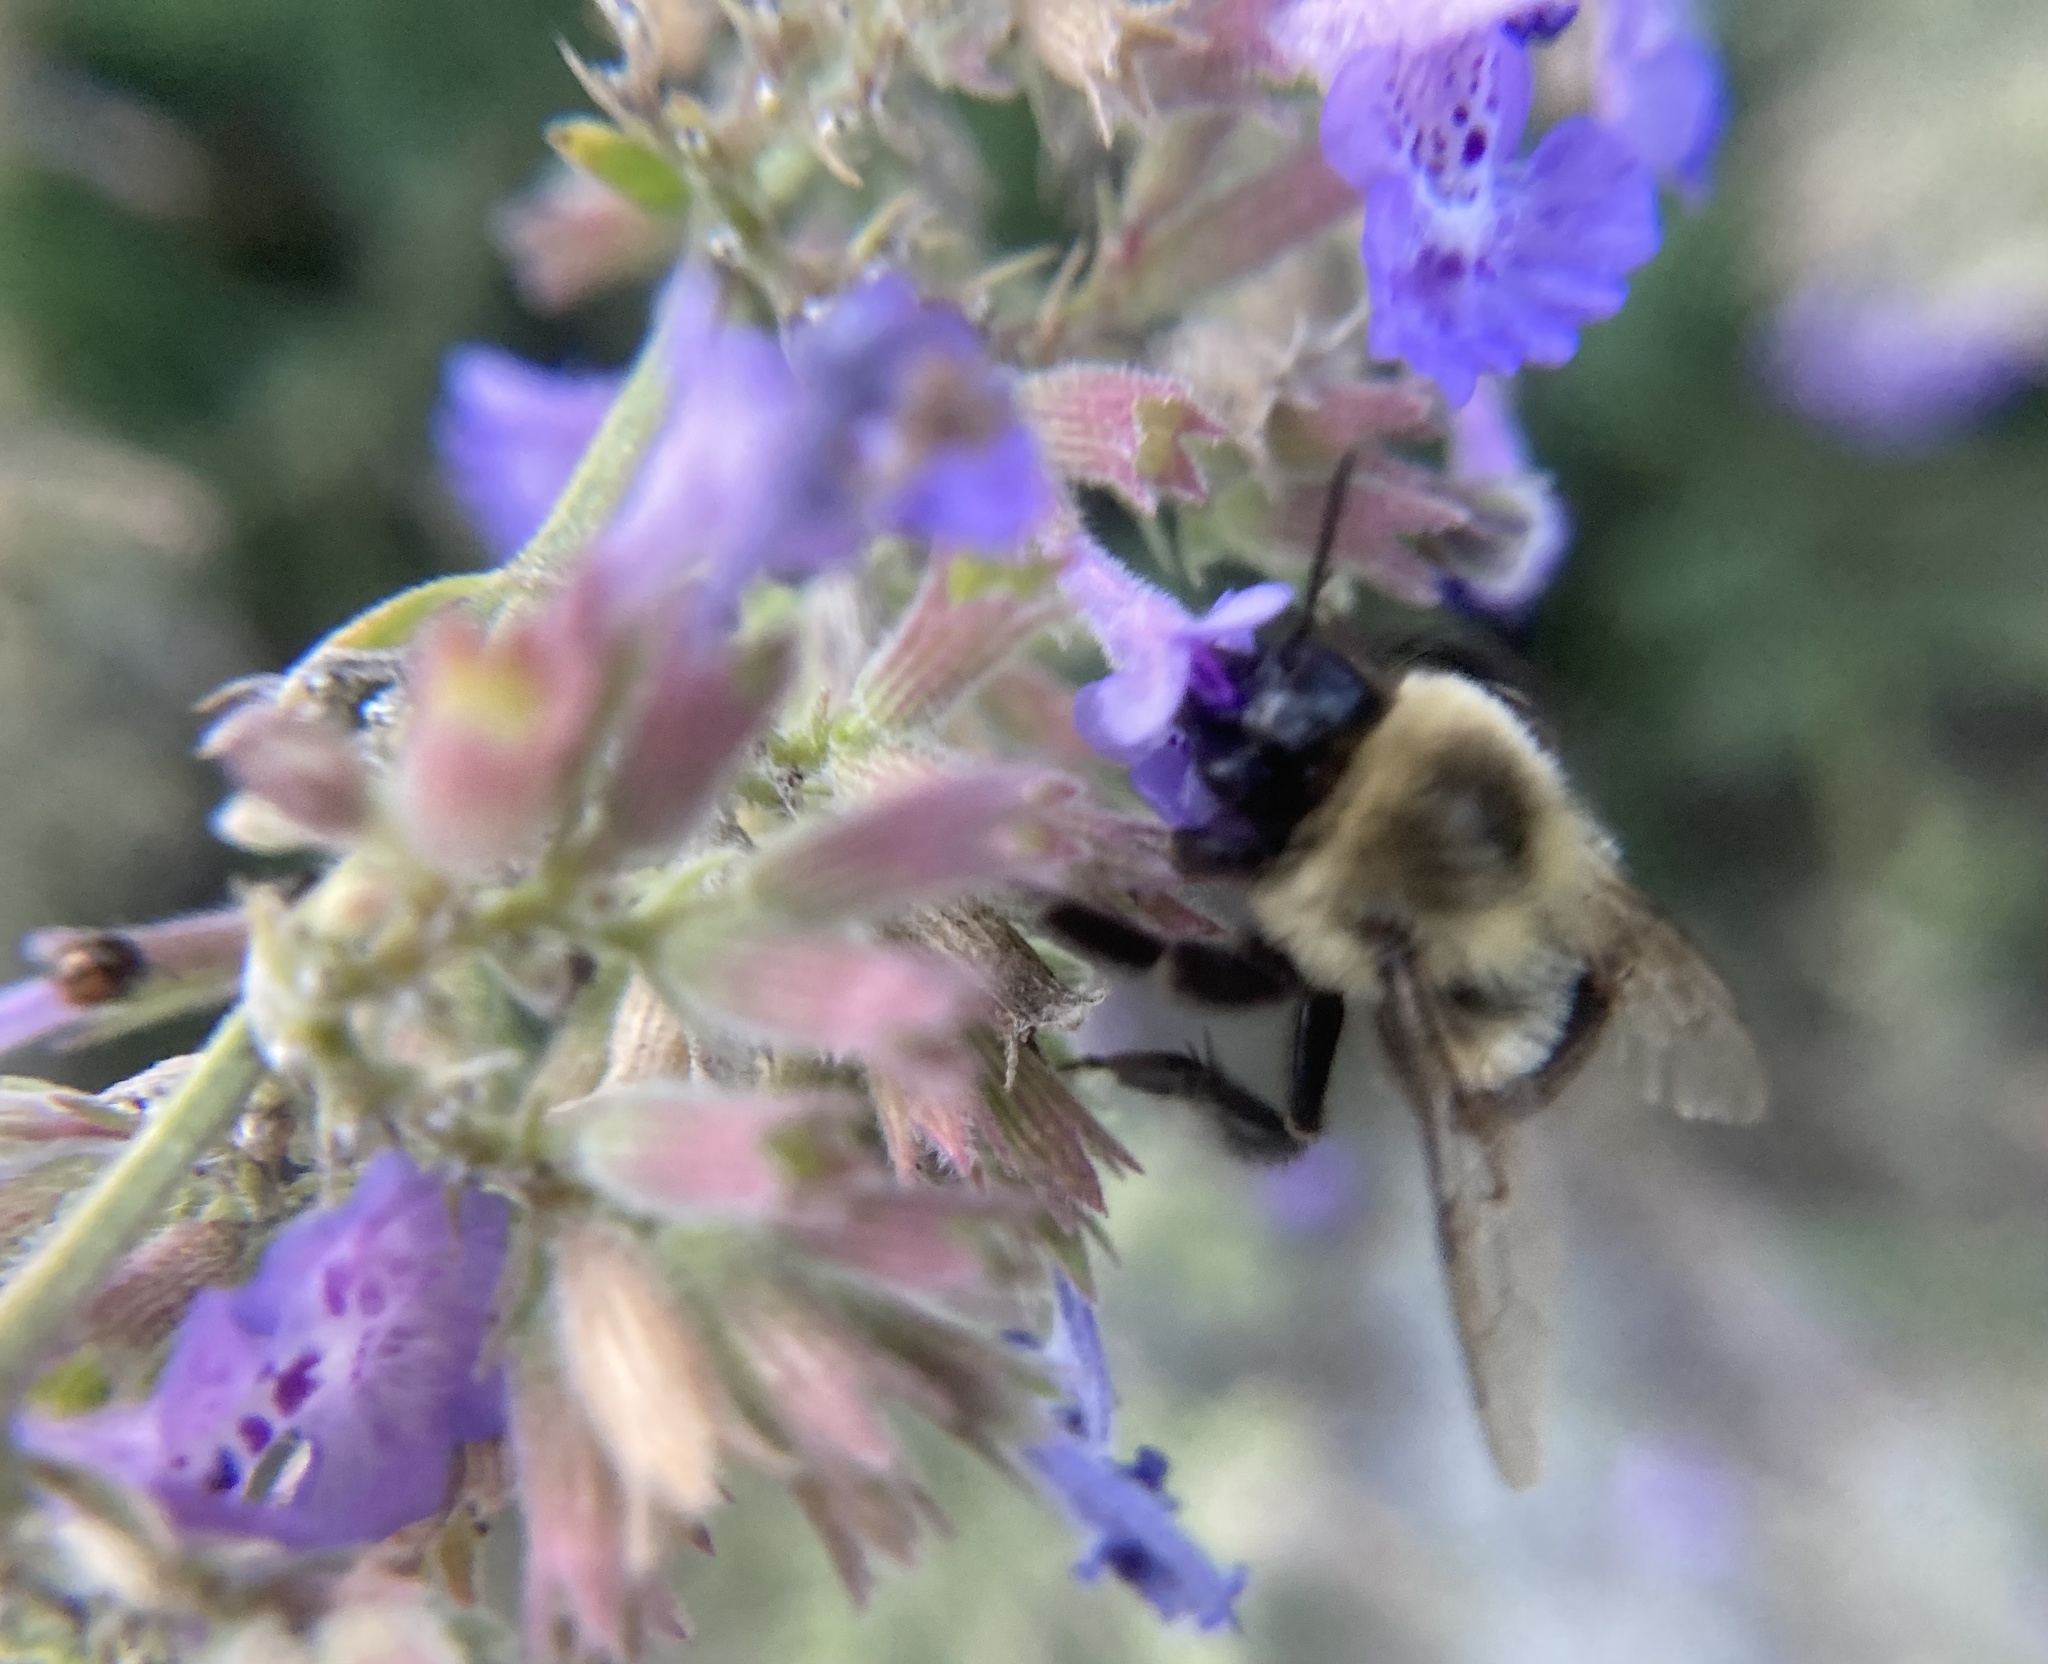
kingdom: Animalia
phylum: Arthropoda
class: Insecta
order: Hymenoptera
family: Apidae
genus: Bombus
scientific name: Bombus impatiens
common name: Common eastern bumble bee
